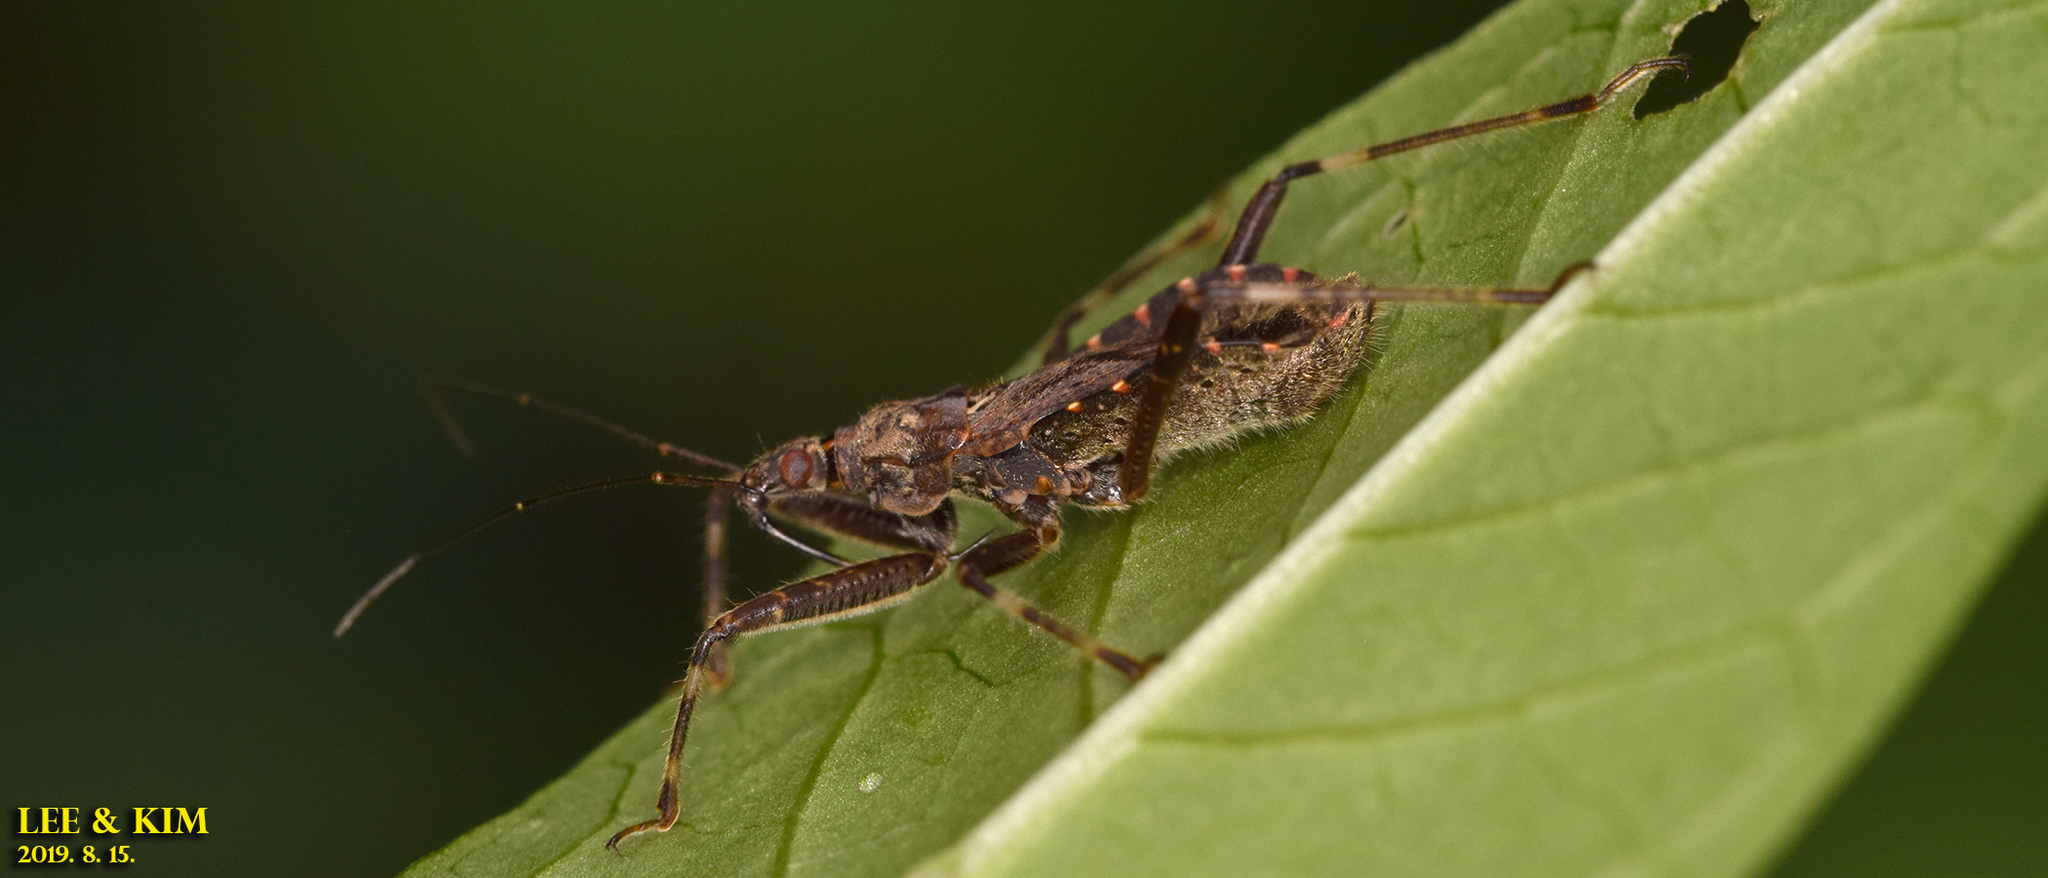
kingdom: Animalia
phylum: Arthropoda
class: Insecta
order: Hemiptera
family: Nabidae
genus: Himacerus
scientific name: Himacerus apterus
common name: Tree damsel bug
